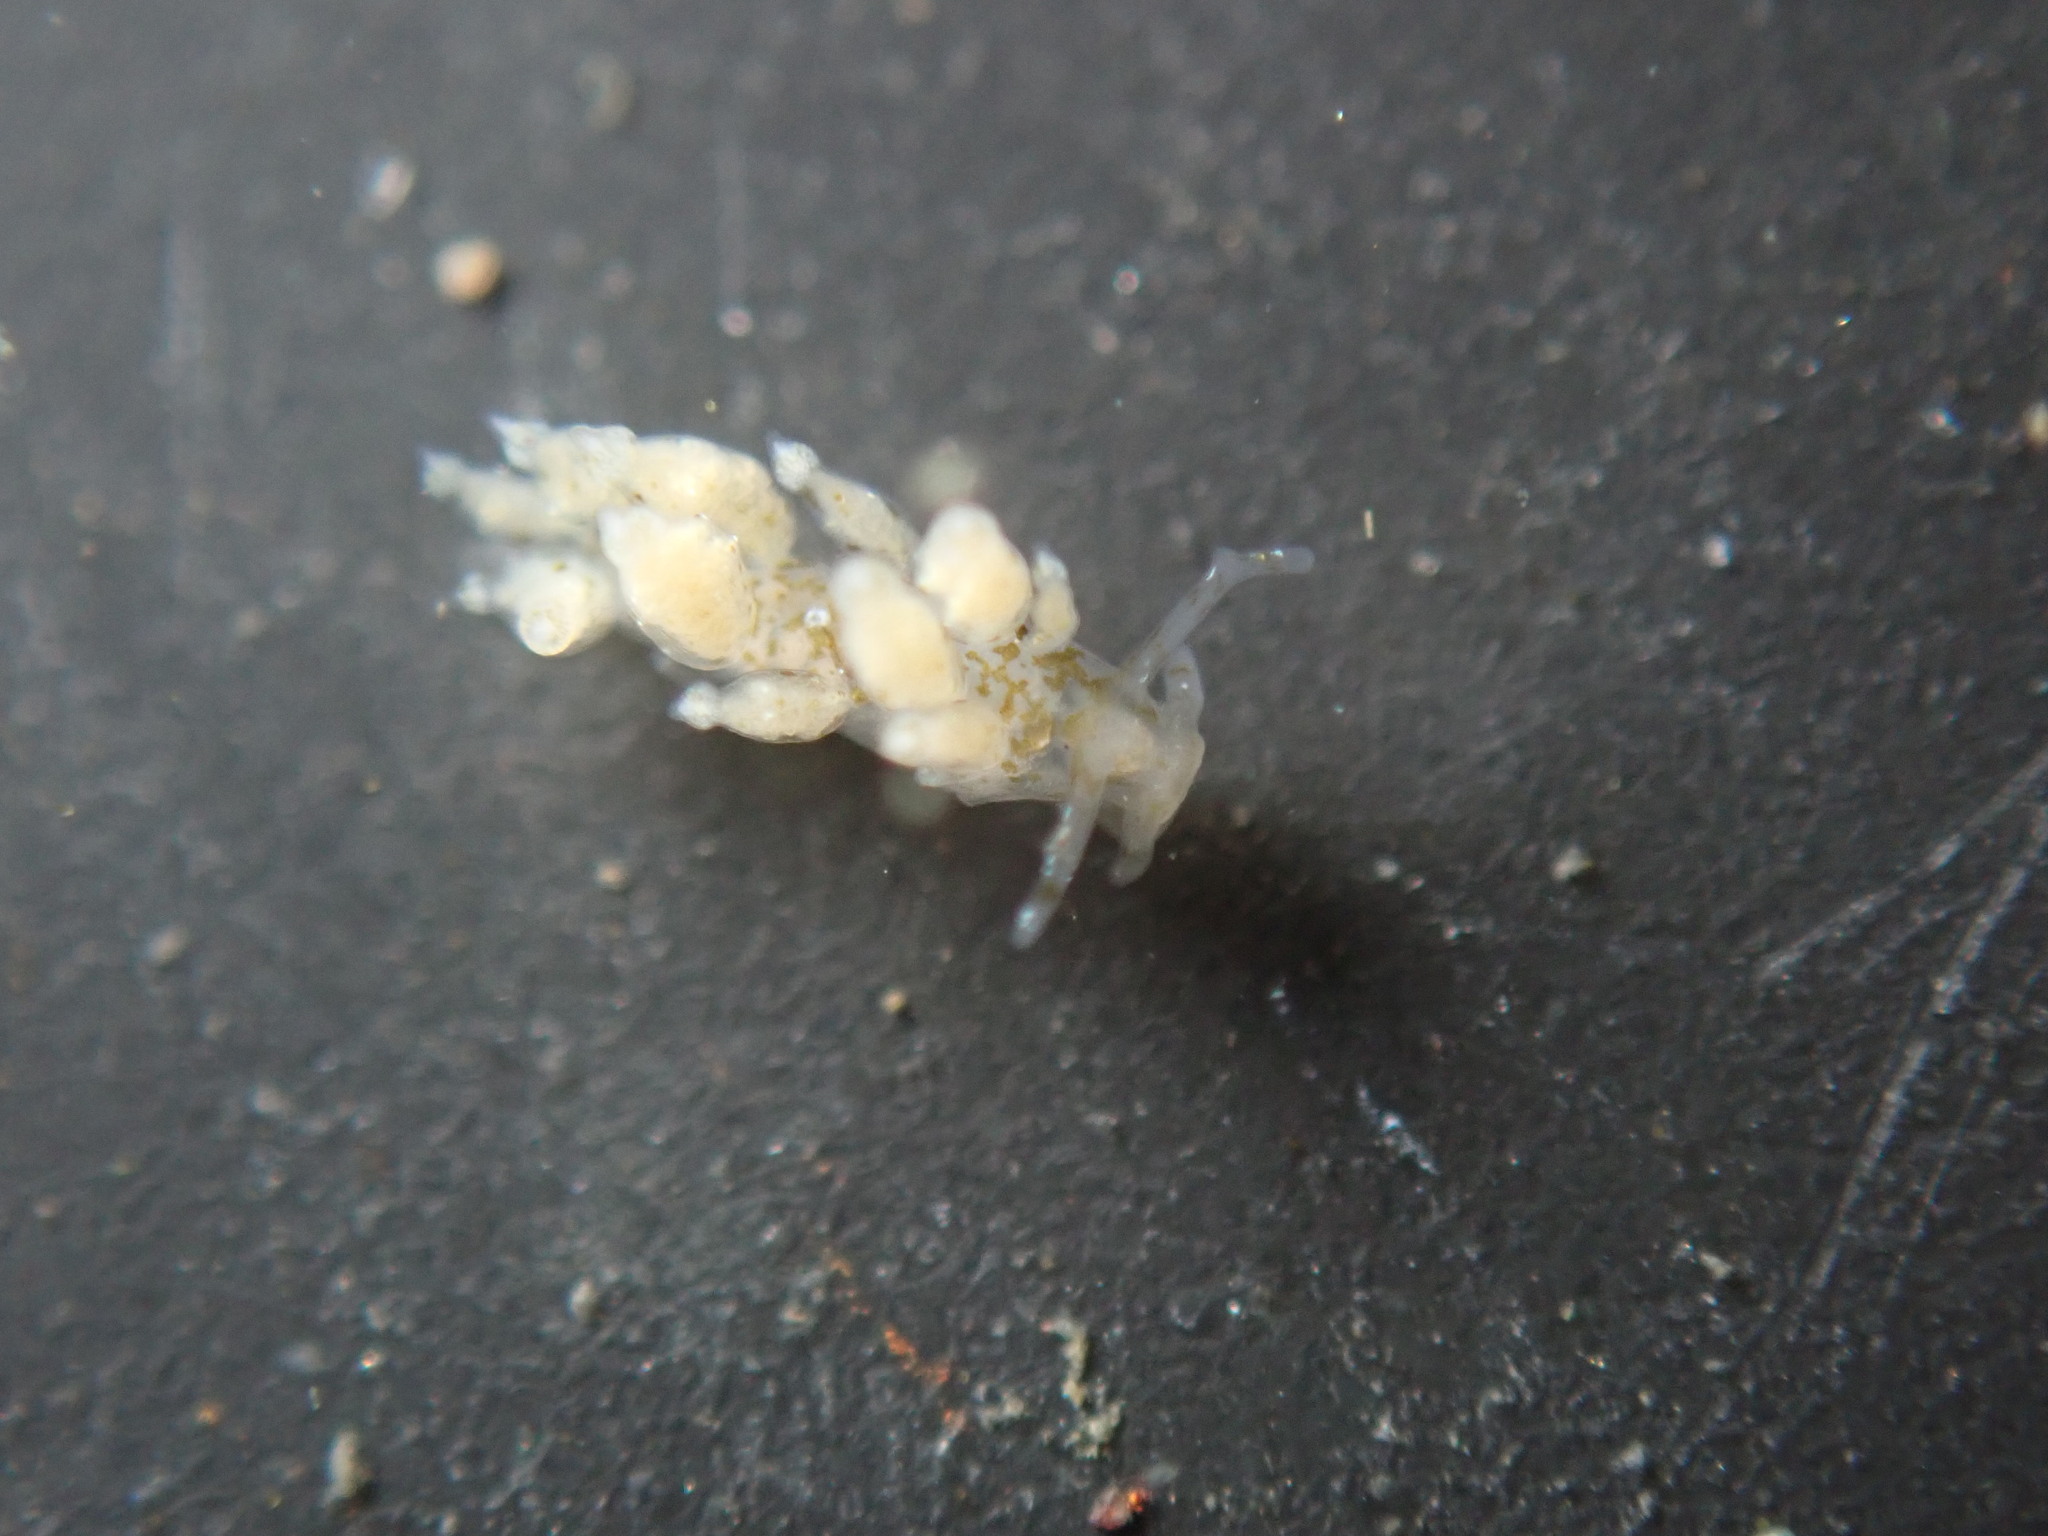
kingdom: Animalia
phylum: Mollusca
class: Gastropoda
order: Nudibranchia
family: Eubranchidae
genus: Eubranchus
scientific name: Eubranchus olivaceus
